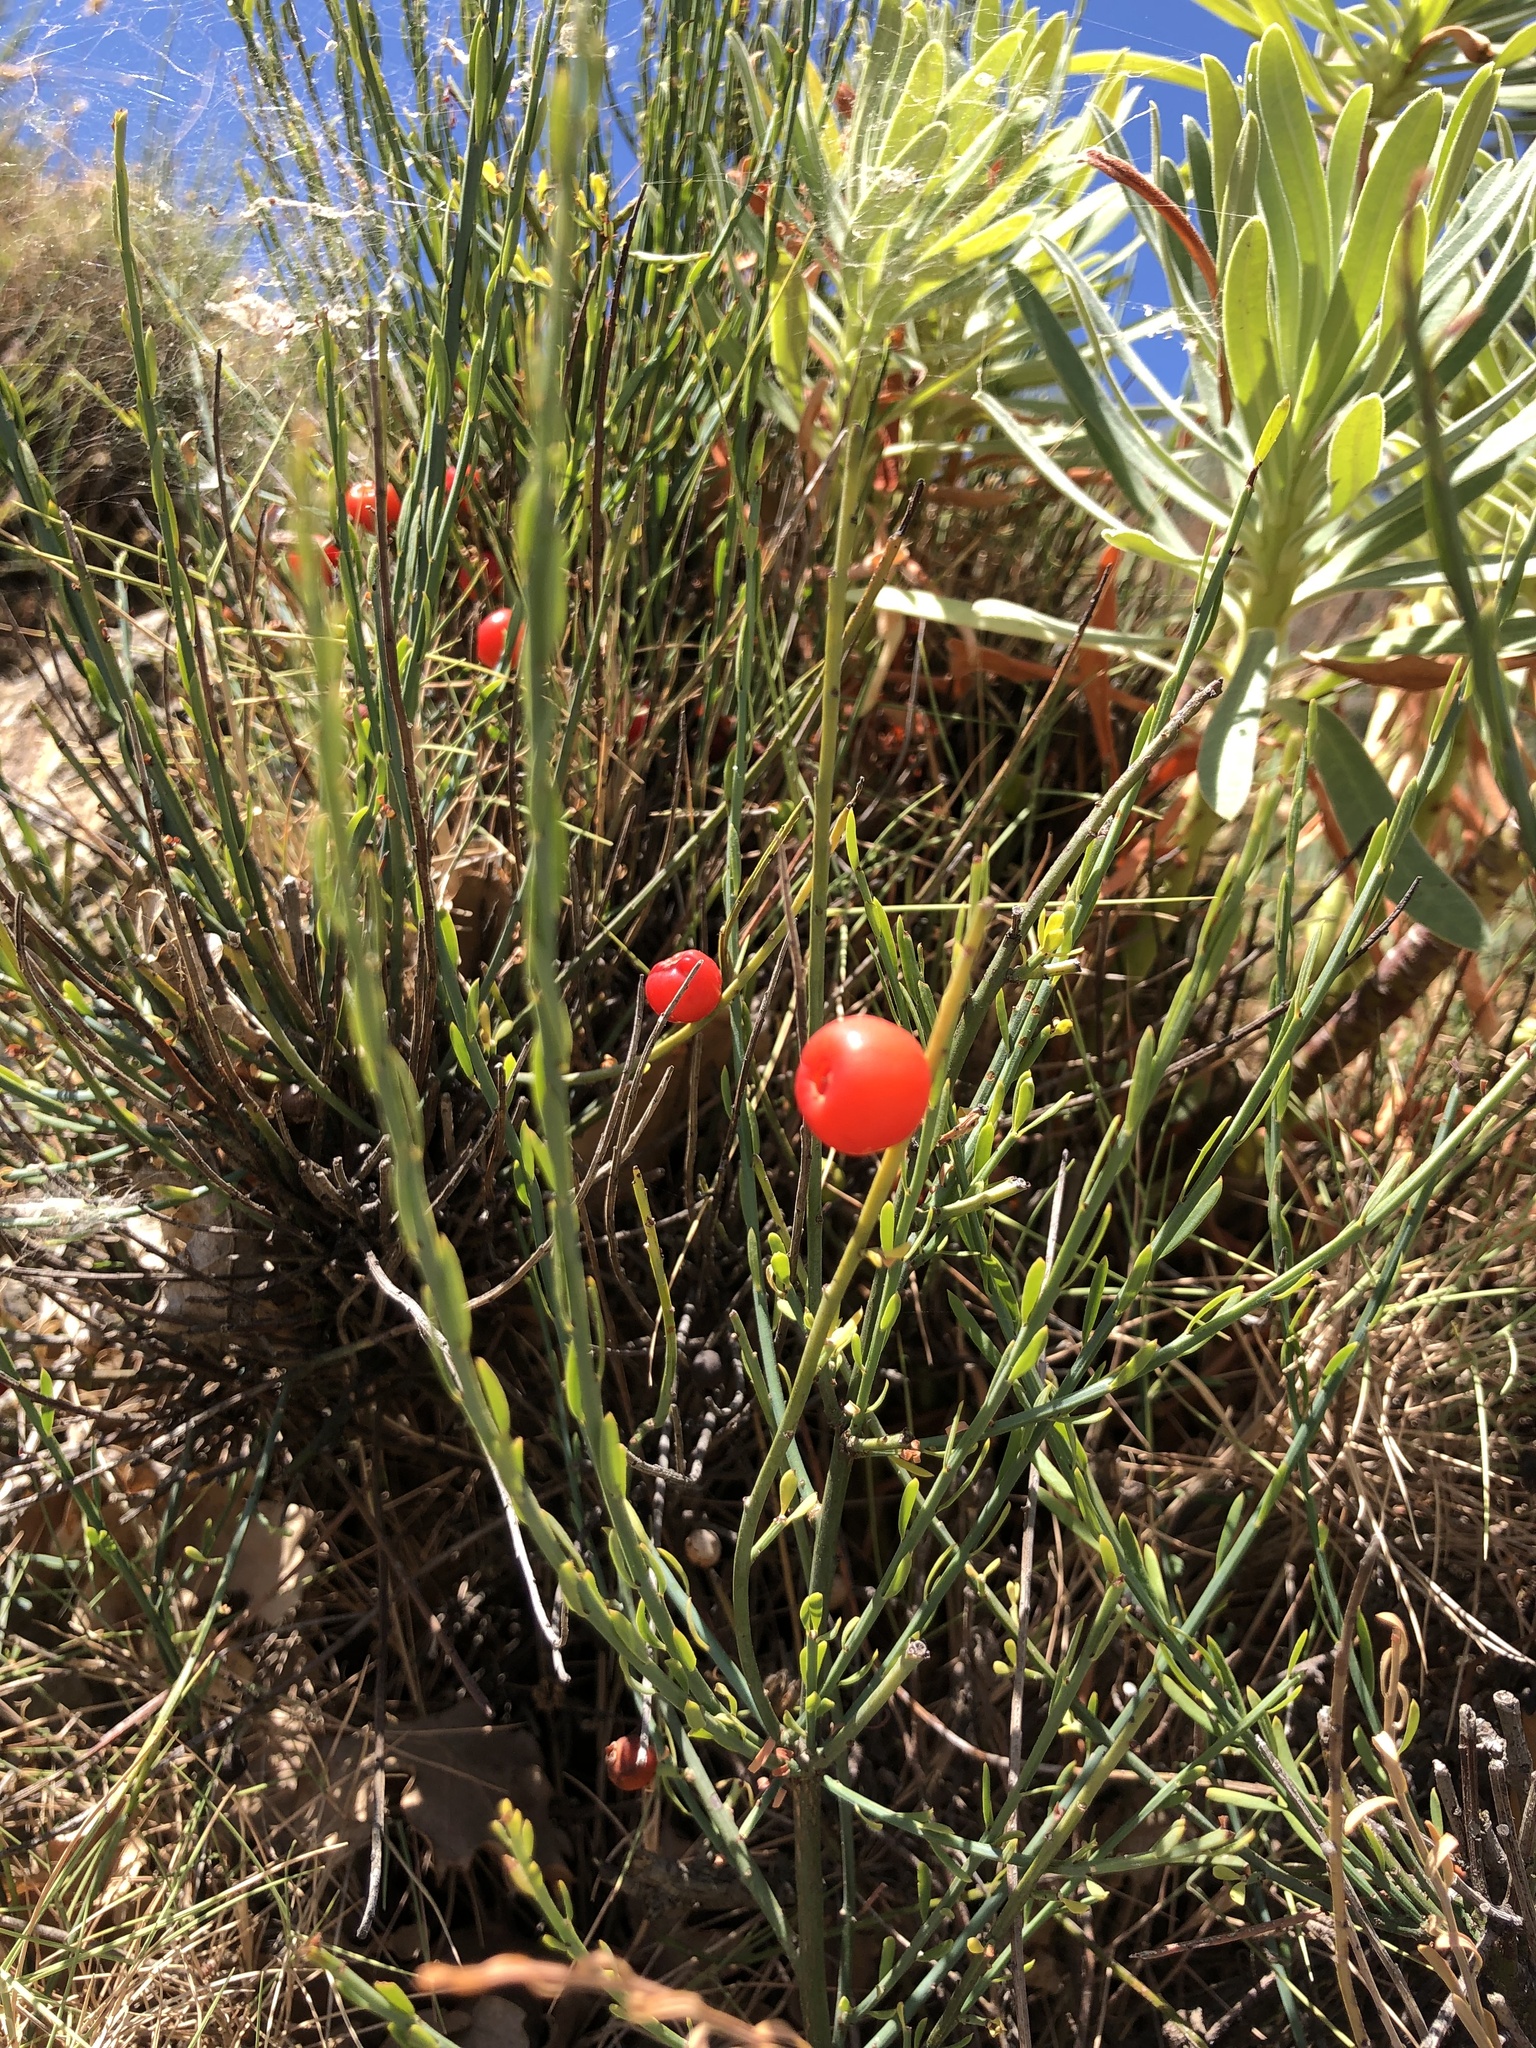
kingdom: Plantae
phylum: Tracheophyta
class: Magnoliopsida
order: Santalales
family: Santalaceae
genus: Osyris
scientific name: Osyris alba
